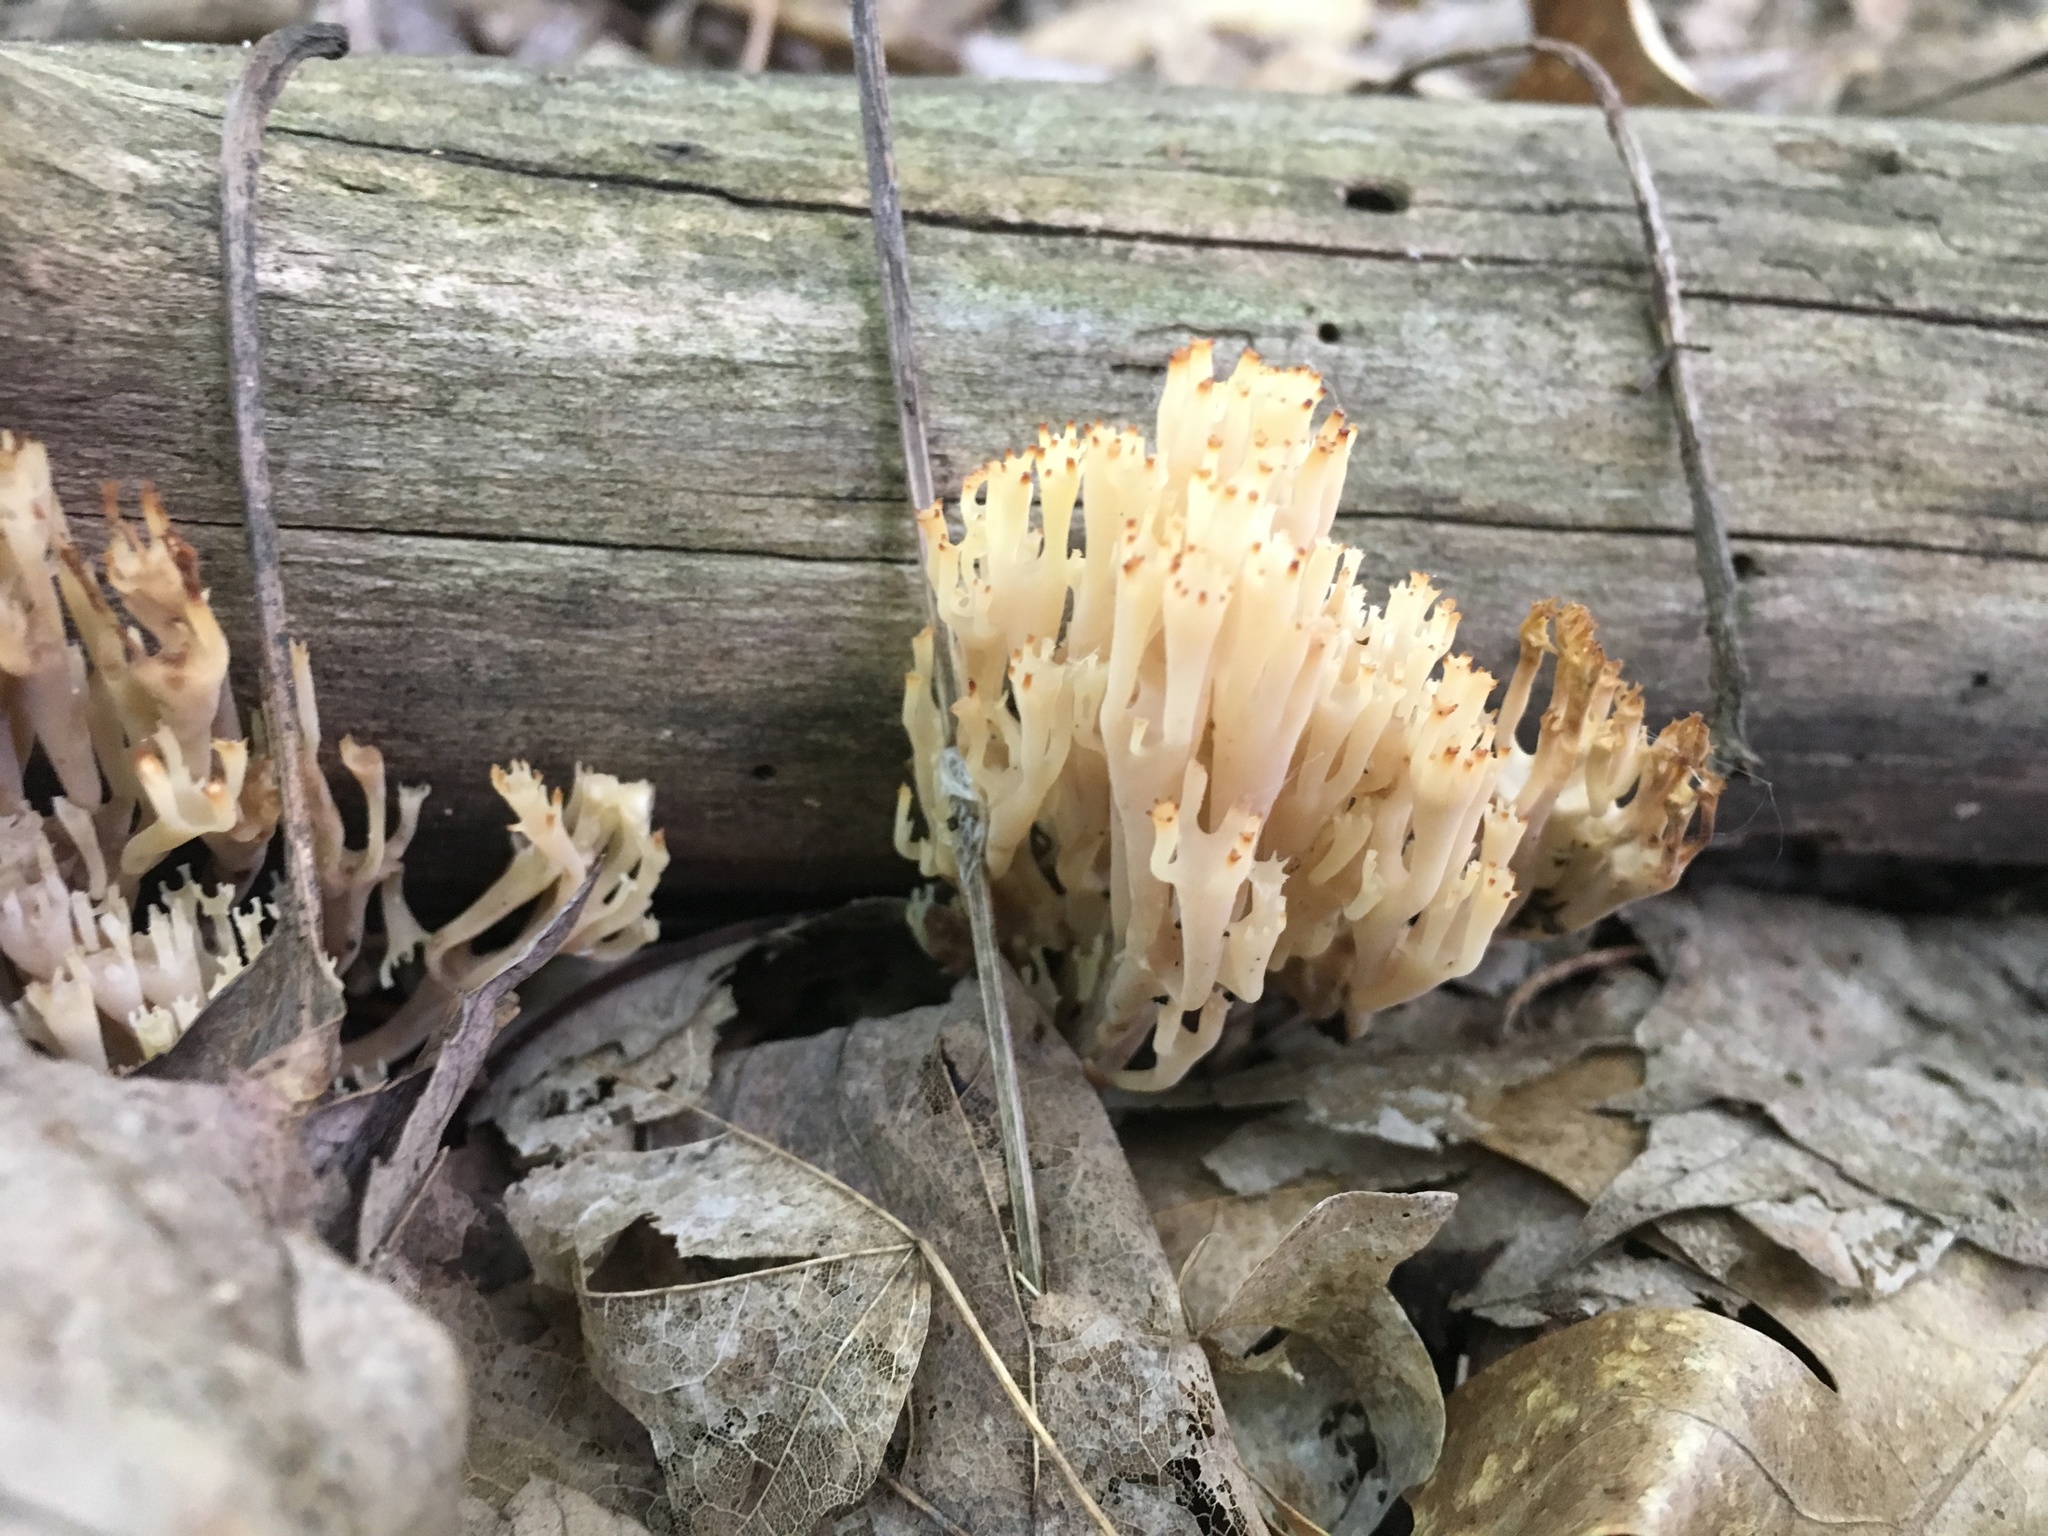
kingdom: Fungi
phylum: Basidiomycota
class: Agaricomycetes
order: Russulales
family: Auriscalpiaceae
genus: Artomyces
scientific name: Artomyces pyxidatus
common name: Crown-tipped coral fungus
